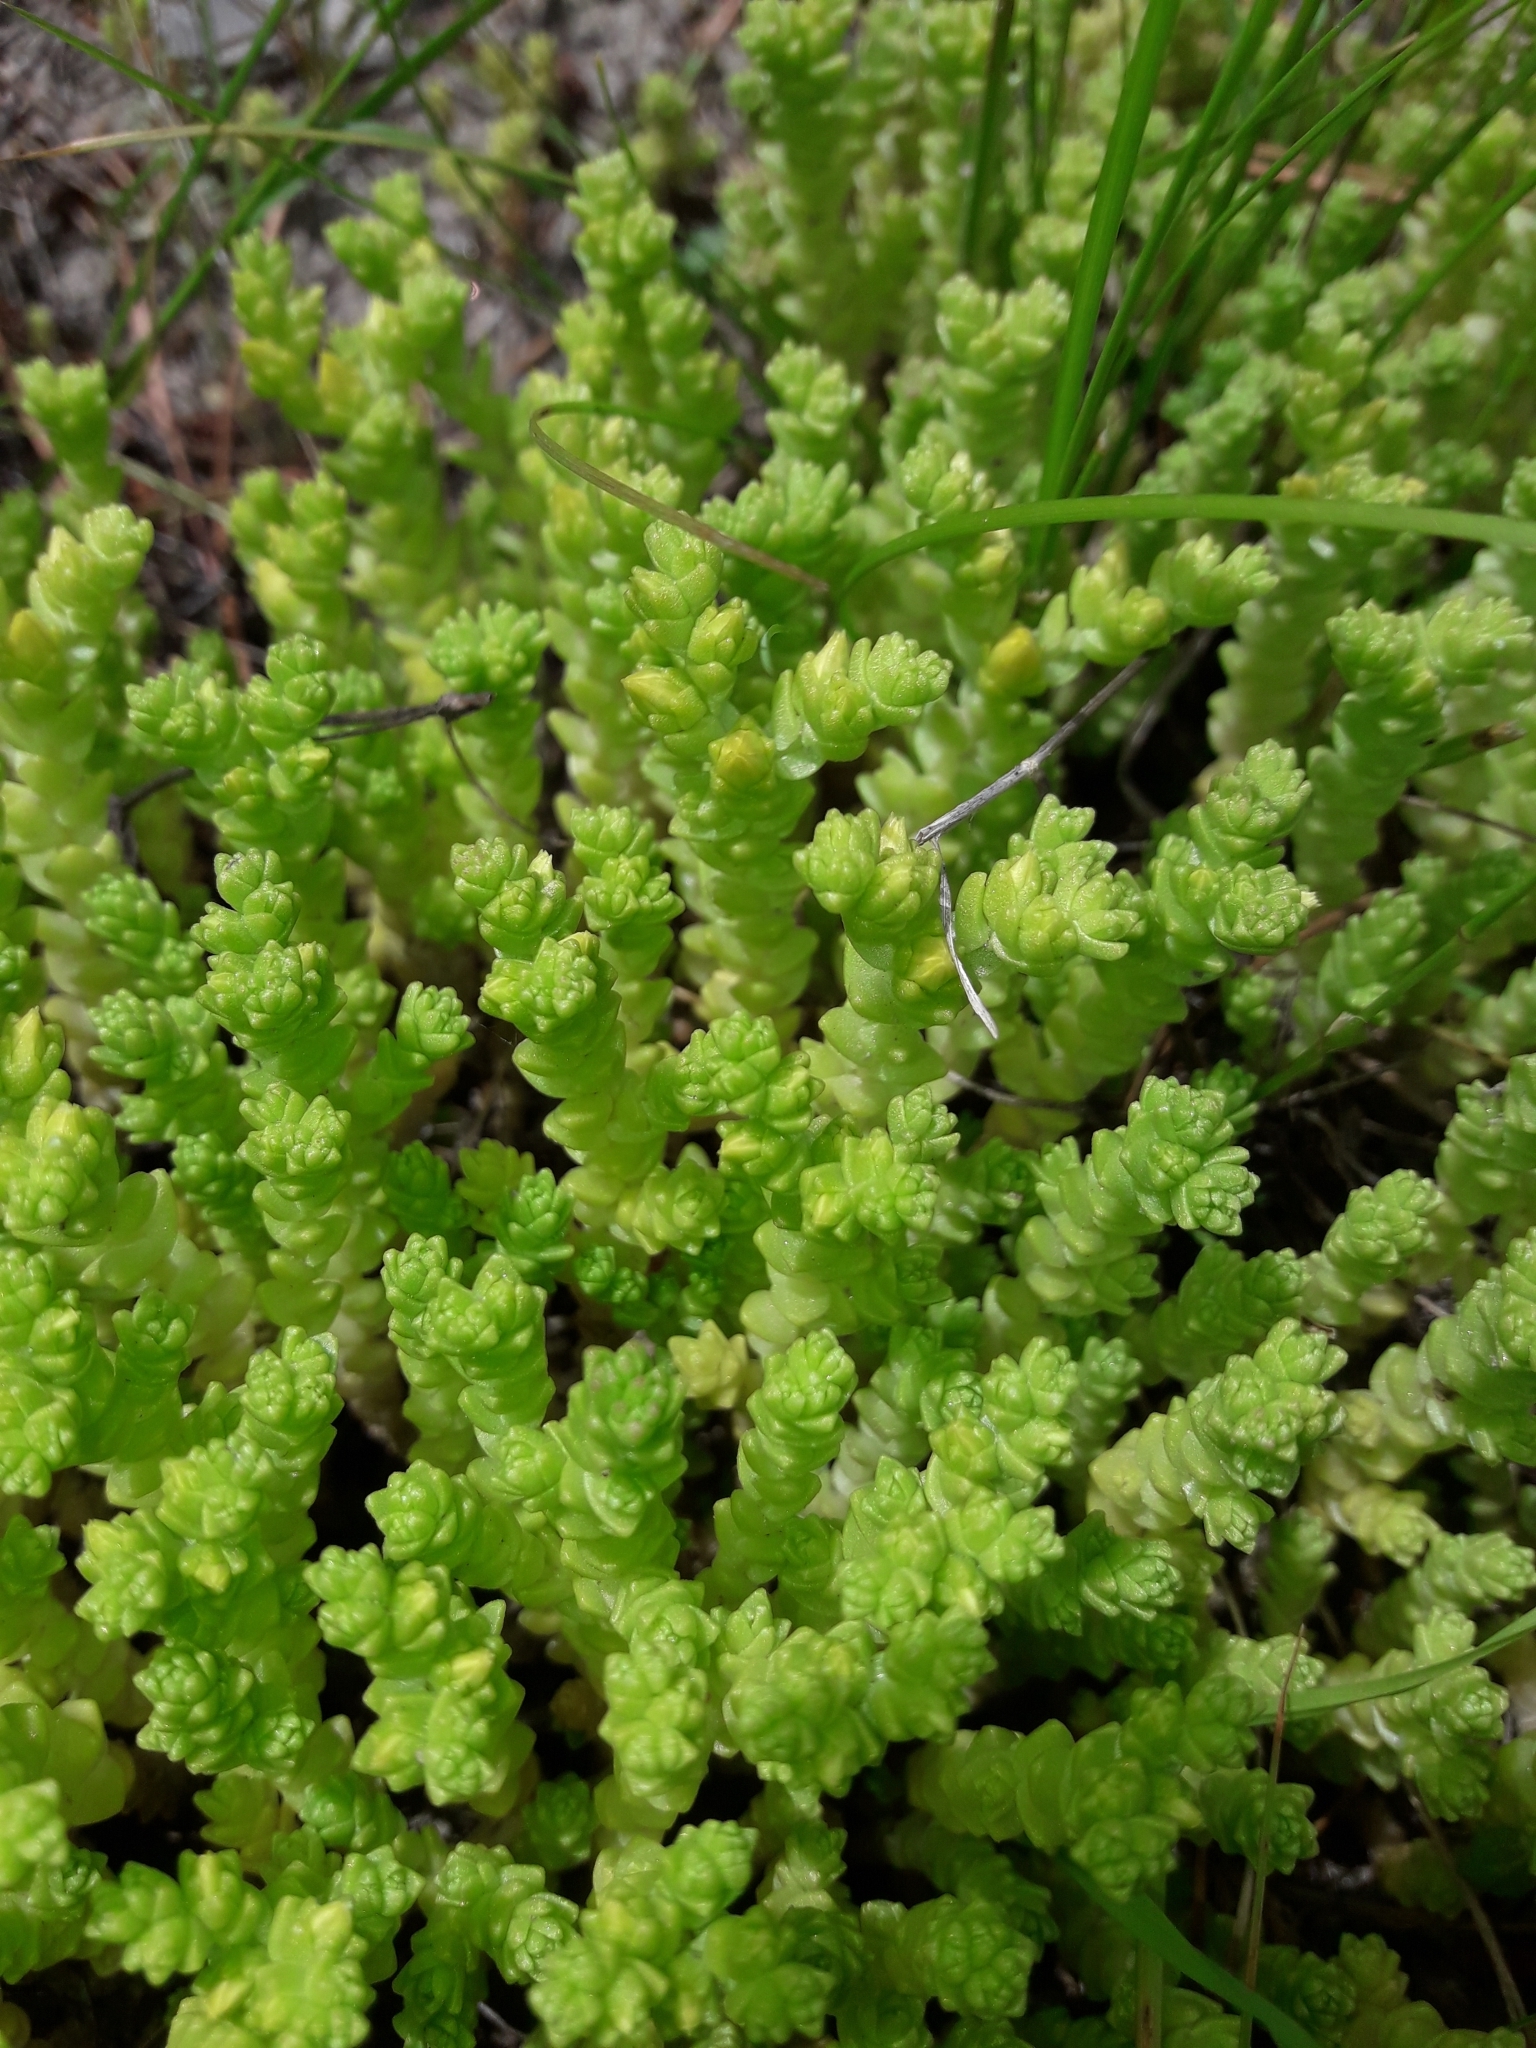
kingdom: Plantae
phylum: Tracheophyta
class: Magnoliopsida
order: Saxifragales
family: Crassulaceae
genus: Sedum
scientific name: Sedum acre
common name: Biting stonecrop
